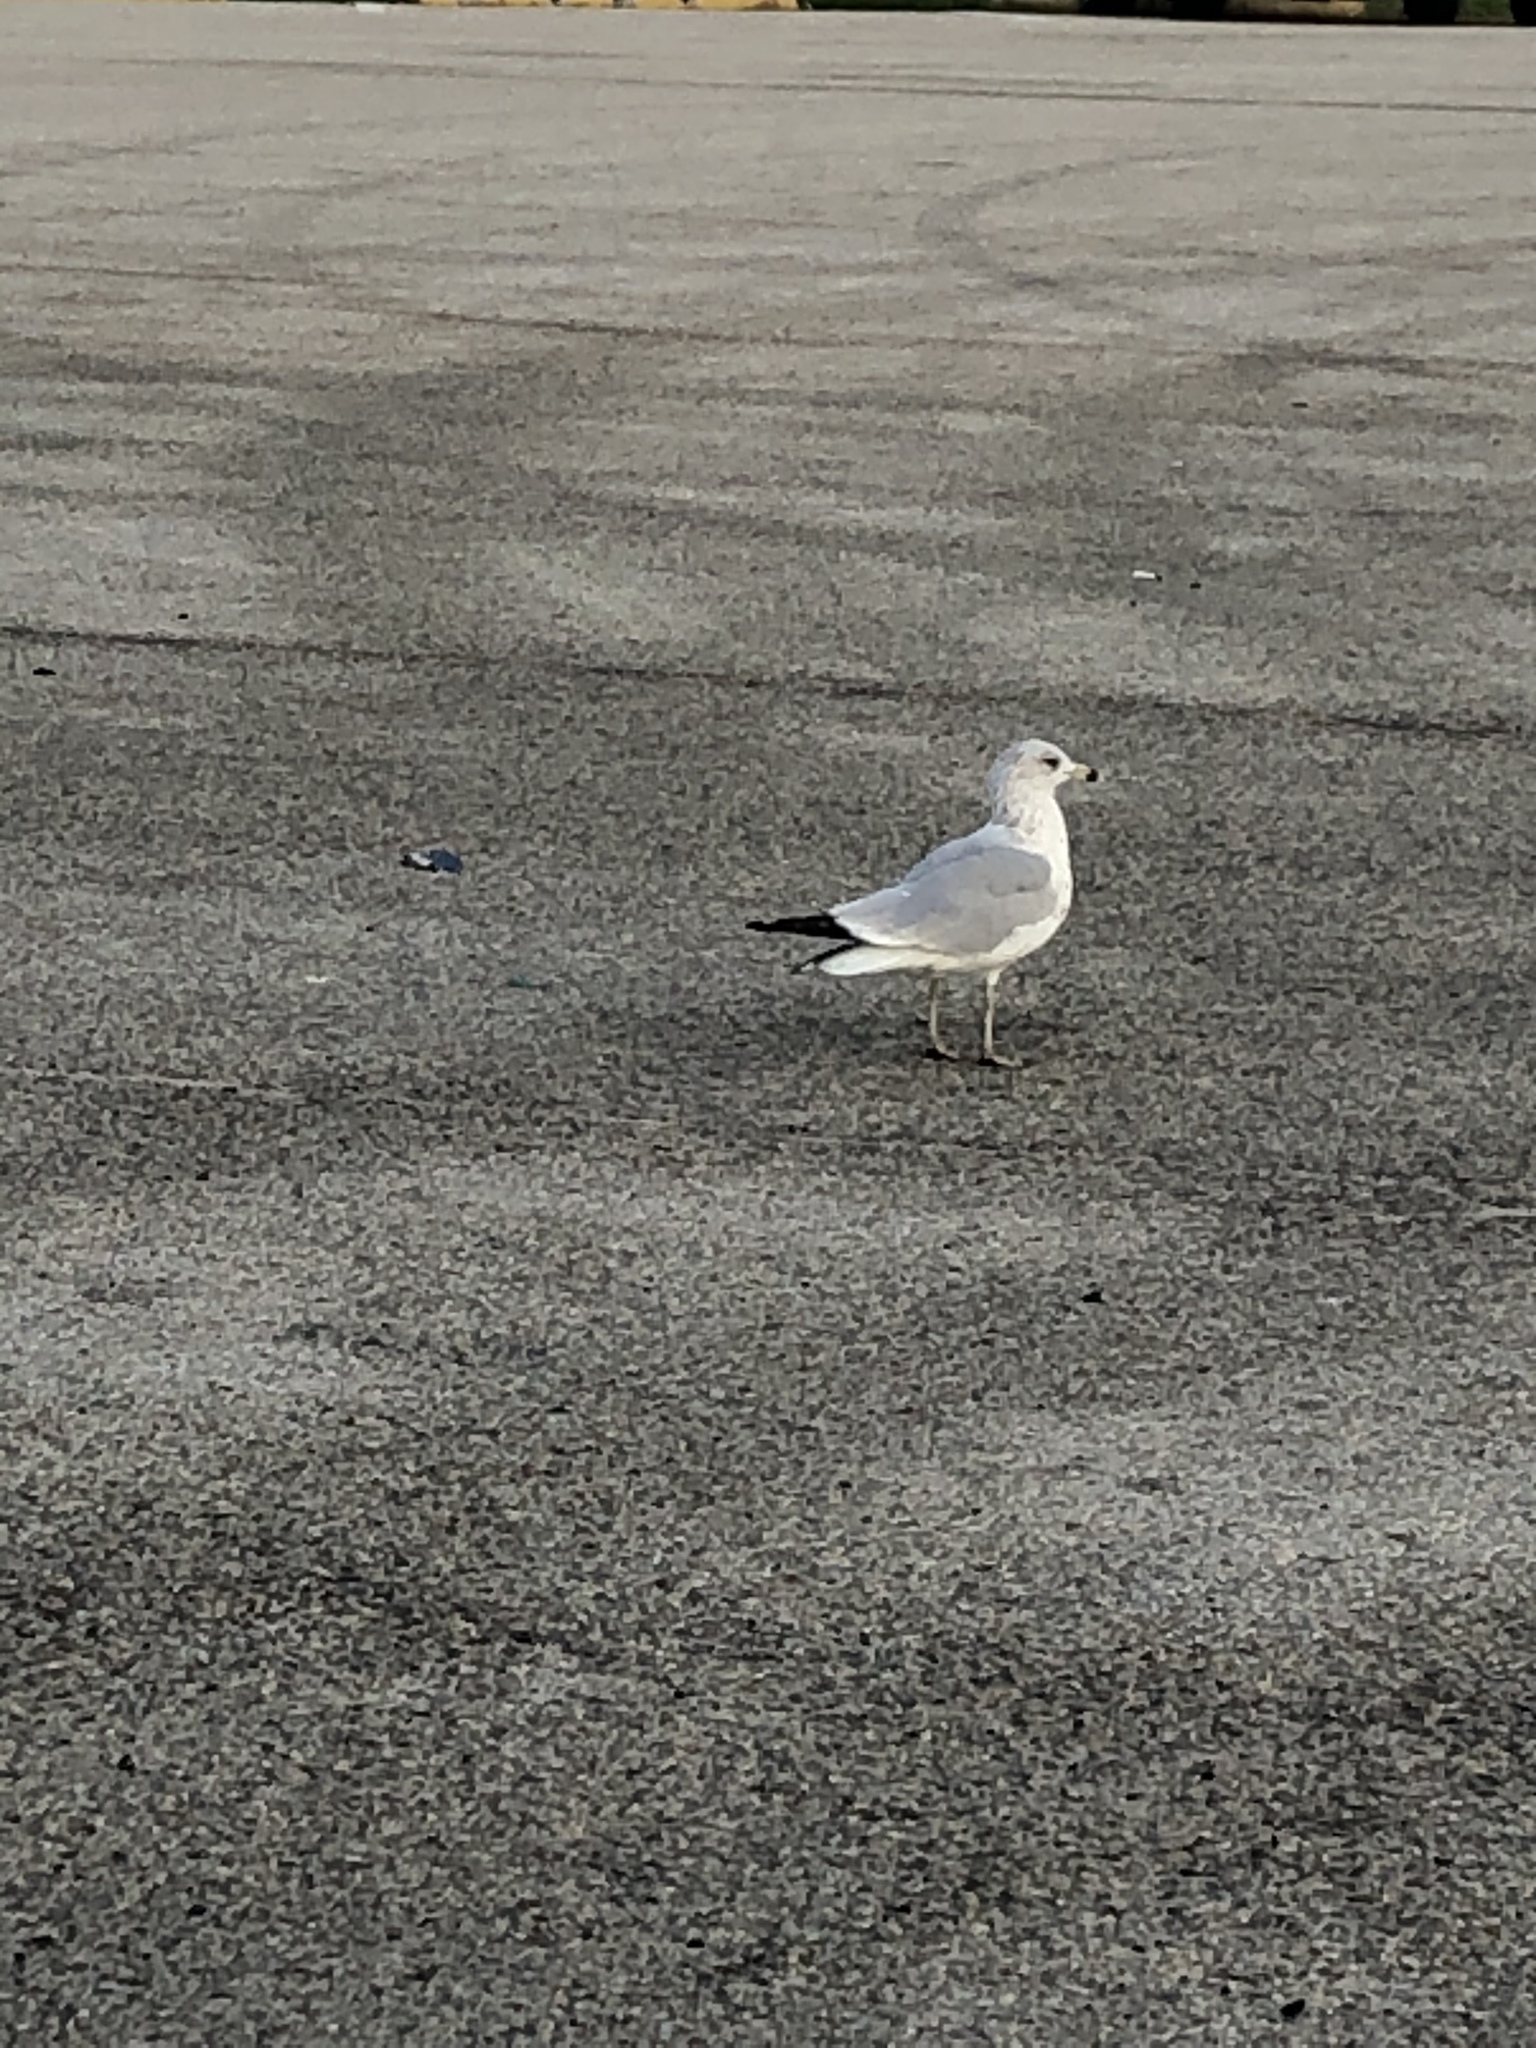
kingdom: Animalia
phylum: Chordata
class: Aves
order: Charadriiformes
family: Laridae
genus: Larus
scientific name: Larus delawarensis
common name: Ring-billed gull
